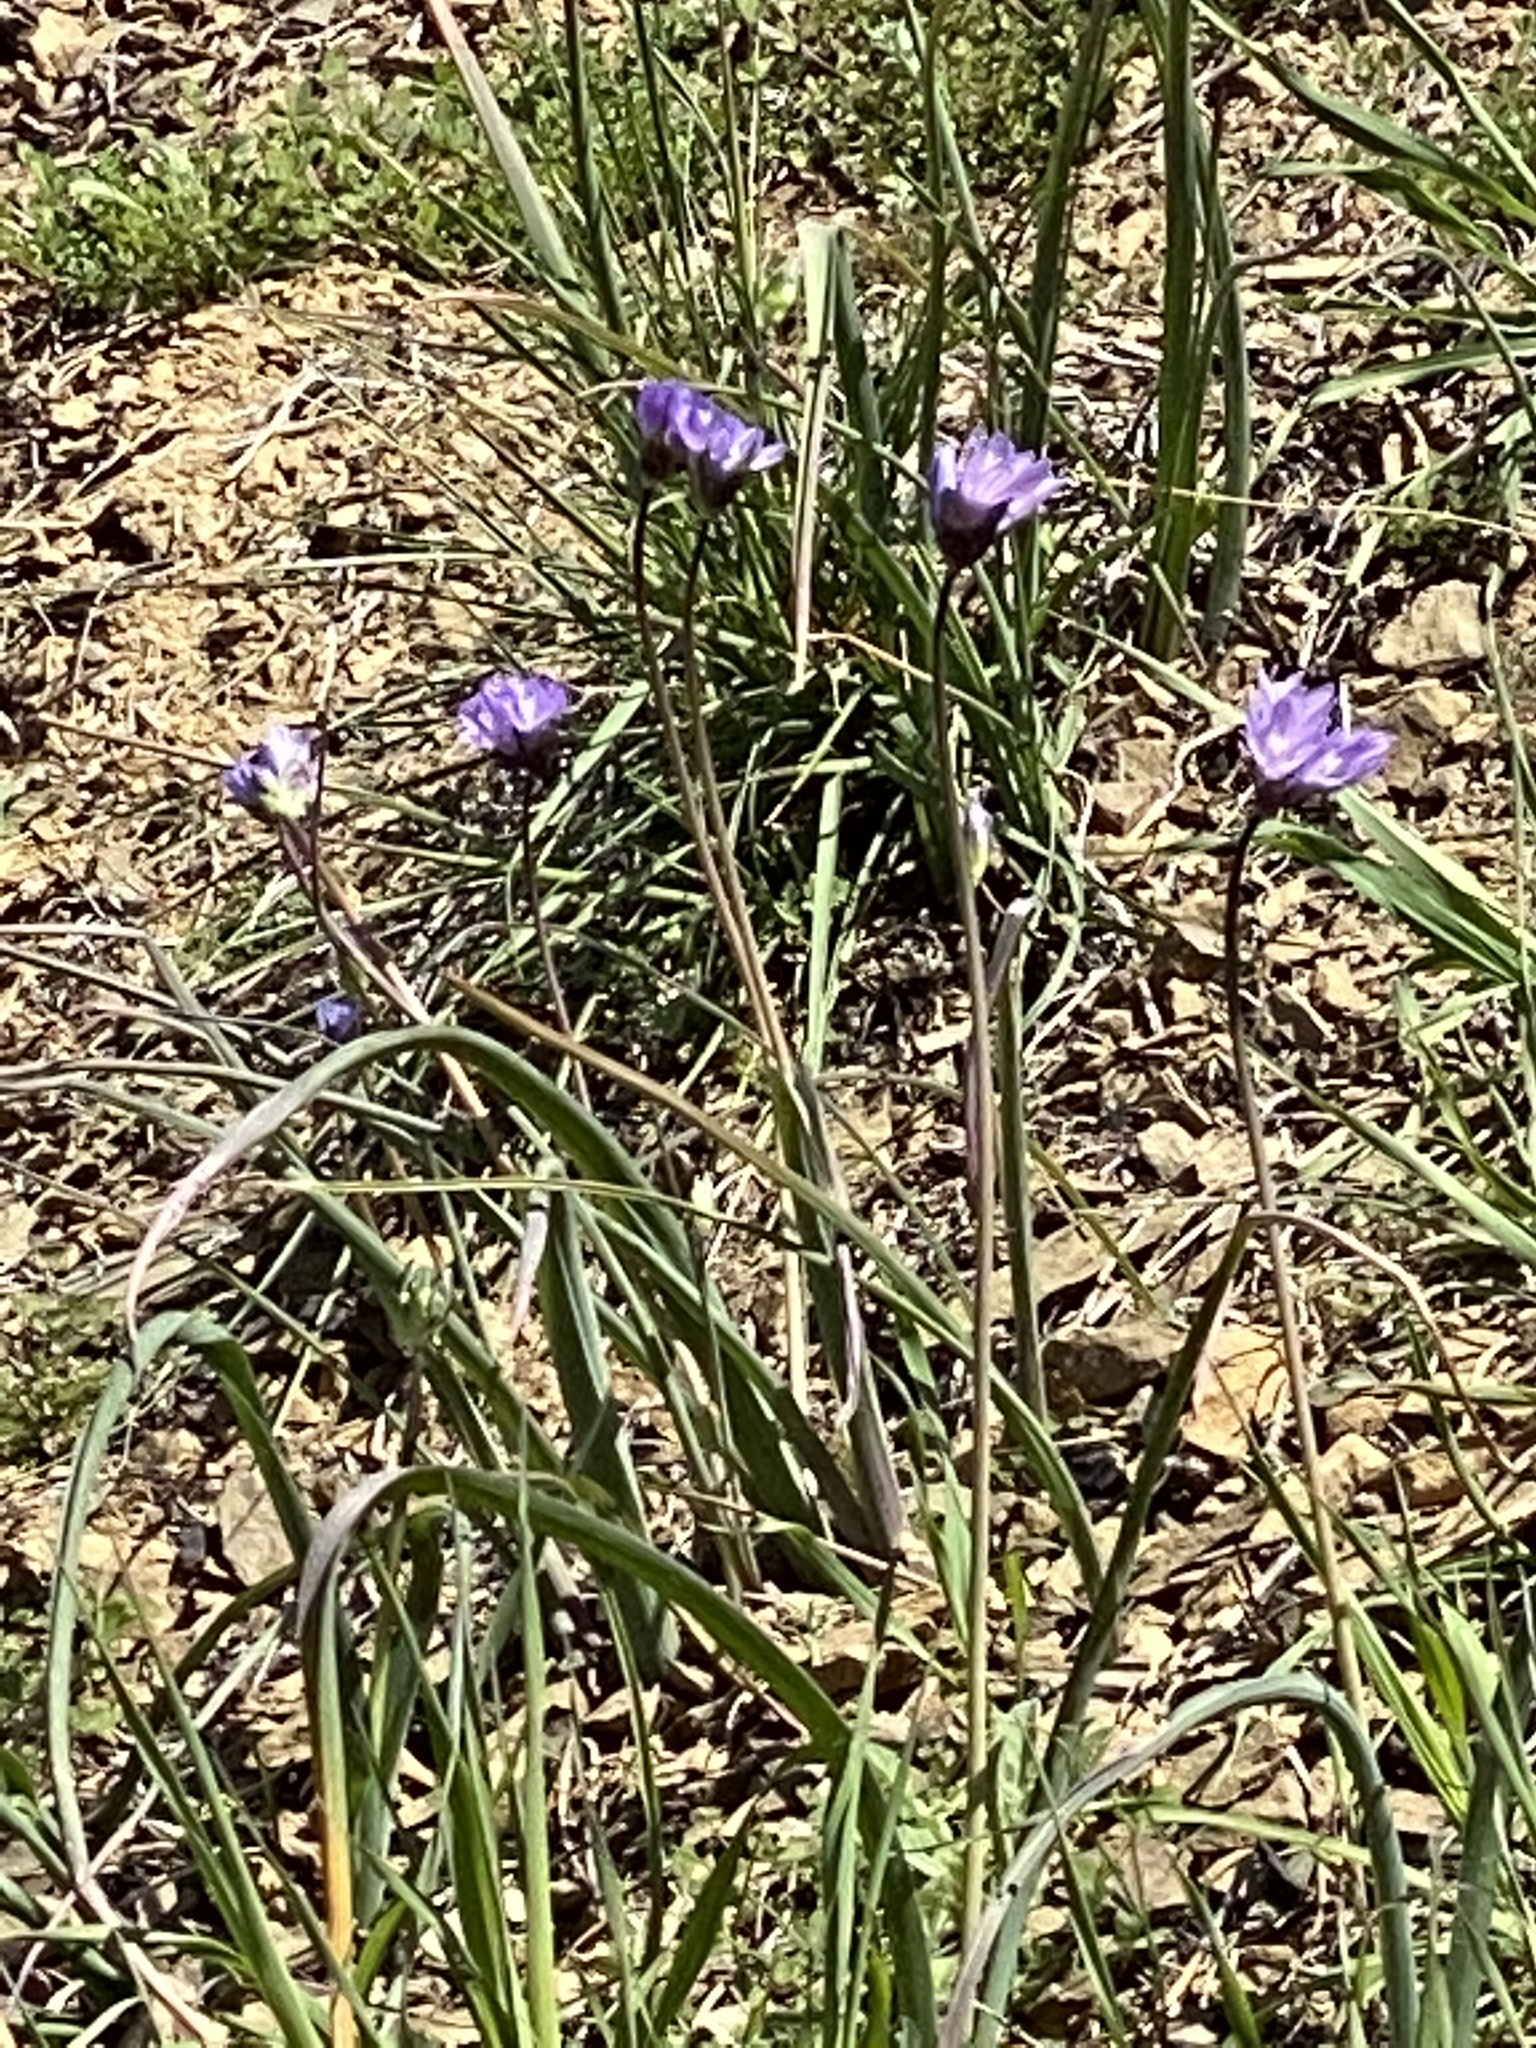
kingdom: Plantae
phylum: Tracheophyta
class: Liliopsida
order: Asparagales
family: Asparagaceae
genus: Dipterostemon
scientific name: Dipterostemon capitatus
